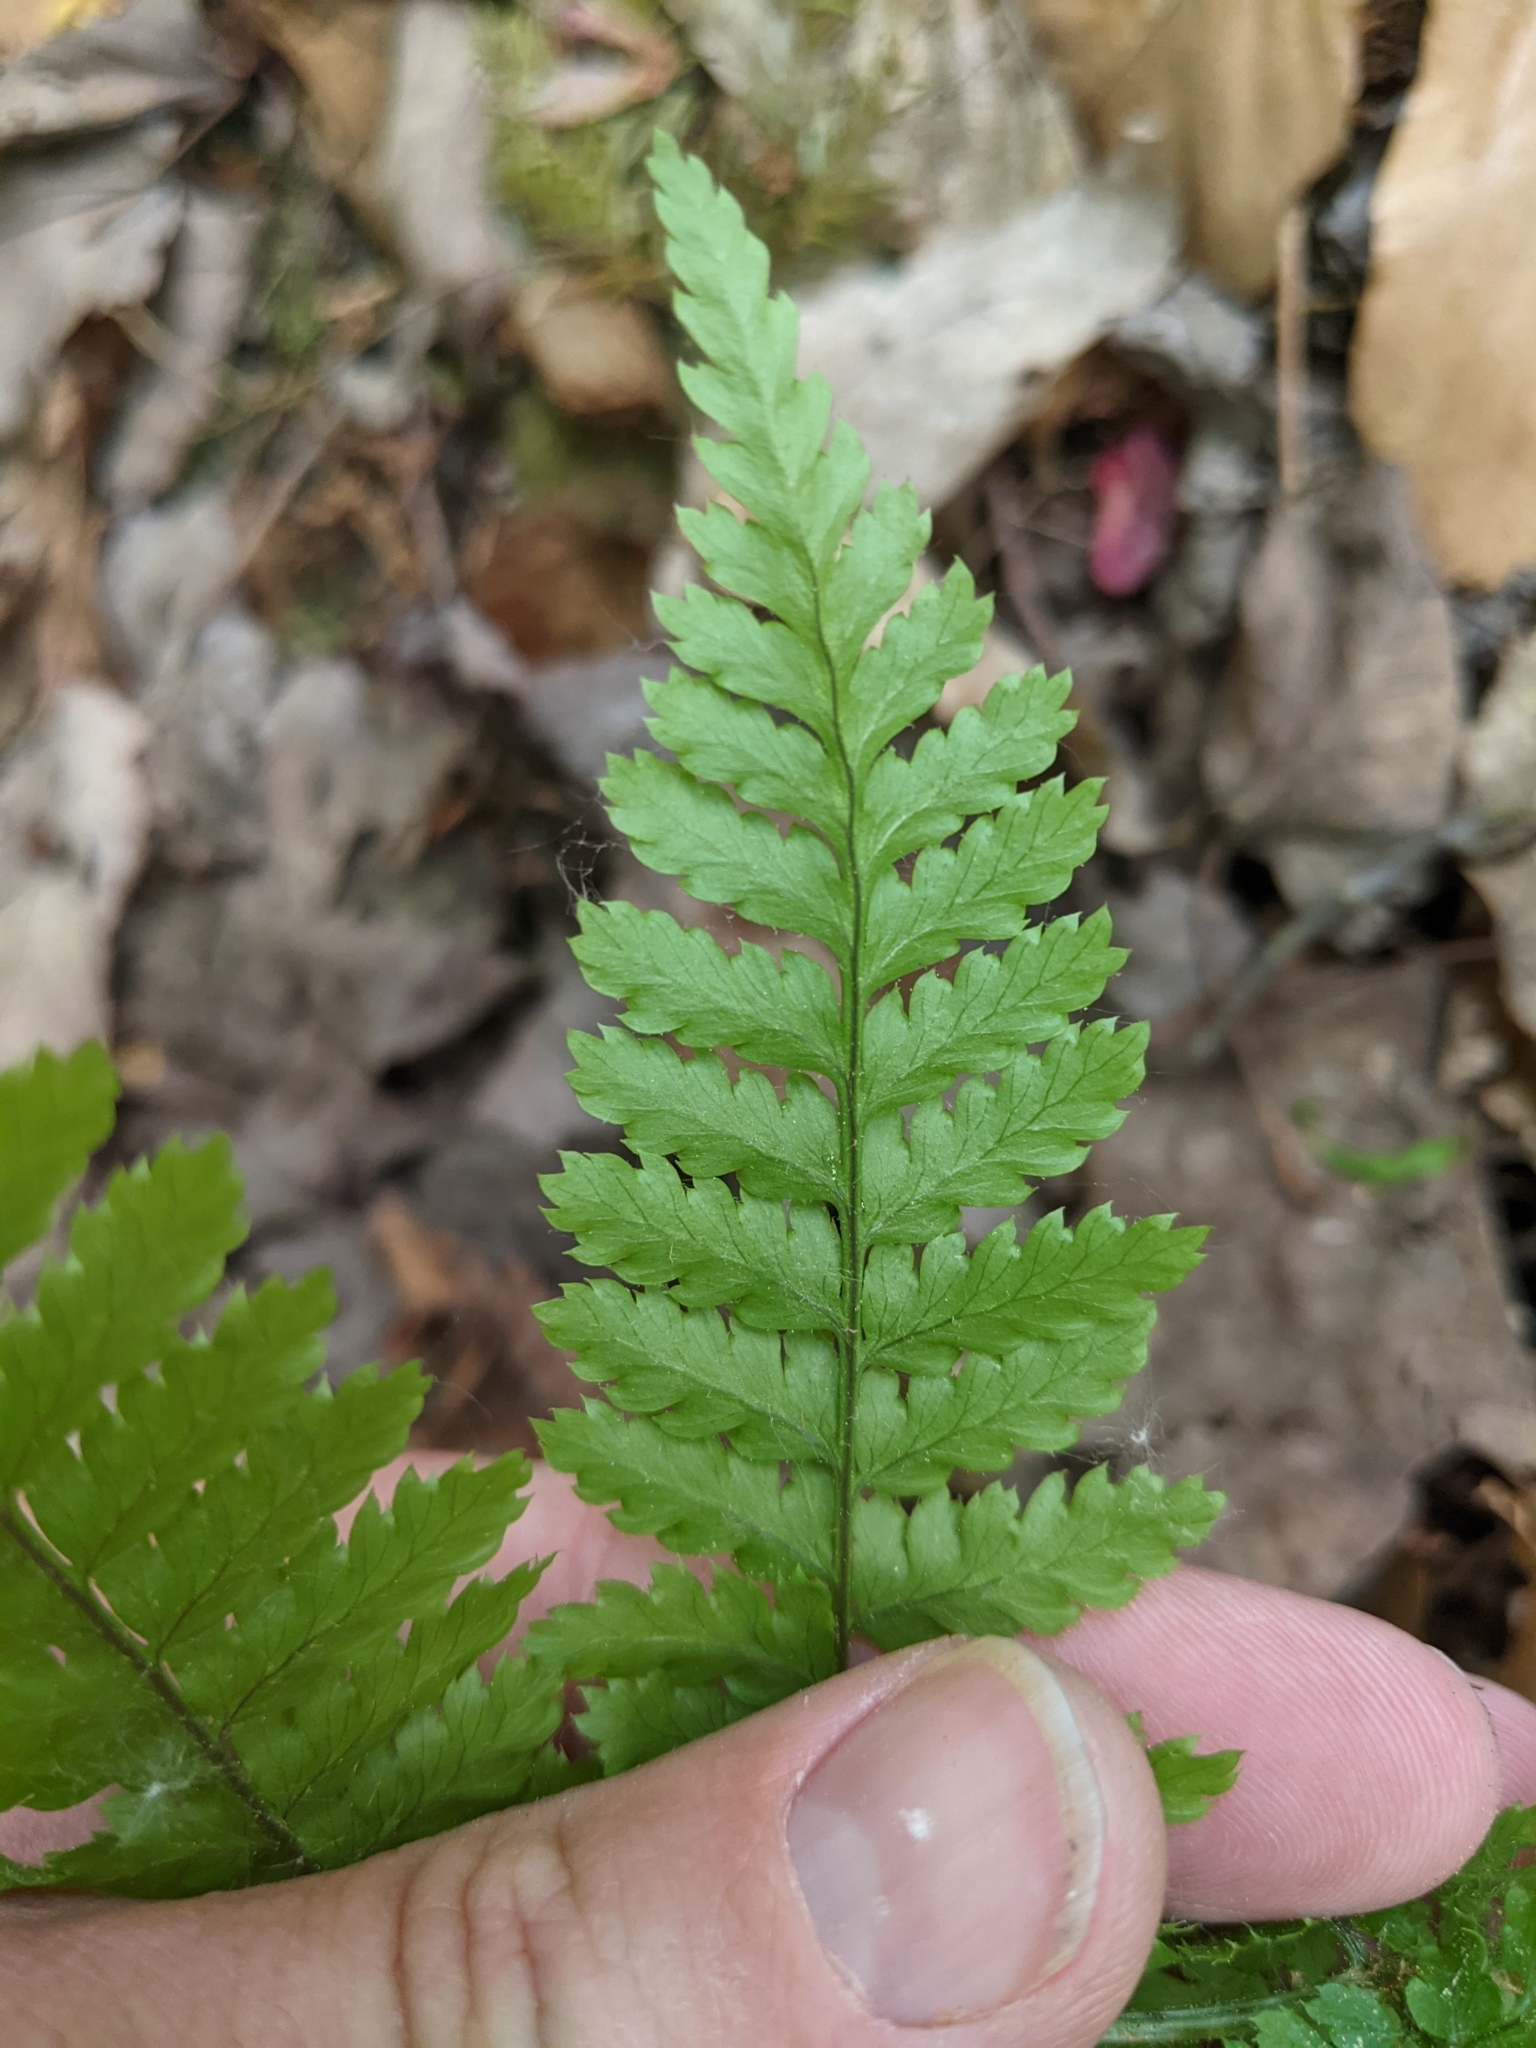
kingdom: Plantae
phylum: Tracheophyta
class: Polypodiopsida
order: Polypodiales
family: Dryopteridaceae
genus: Dryopteris
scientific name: Dryopteris intermedia
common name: Evergreen wood fern
